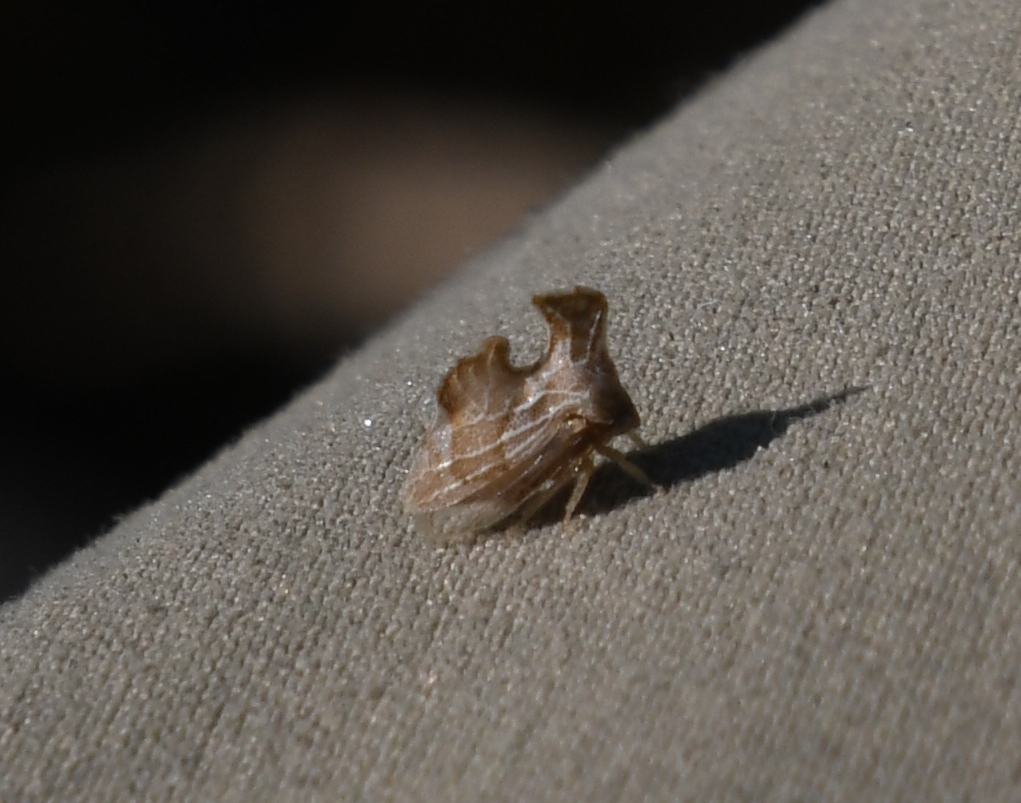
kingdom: Animalia
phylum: Arthropoda
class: Insecta
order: Hemiptera
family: Membracidae
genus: Entylia
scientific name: Entylia carinata
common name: Keeled treehopper
